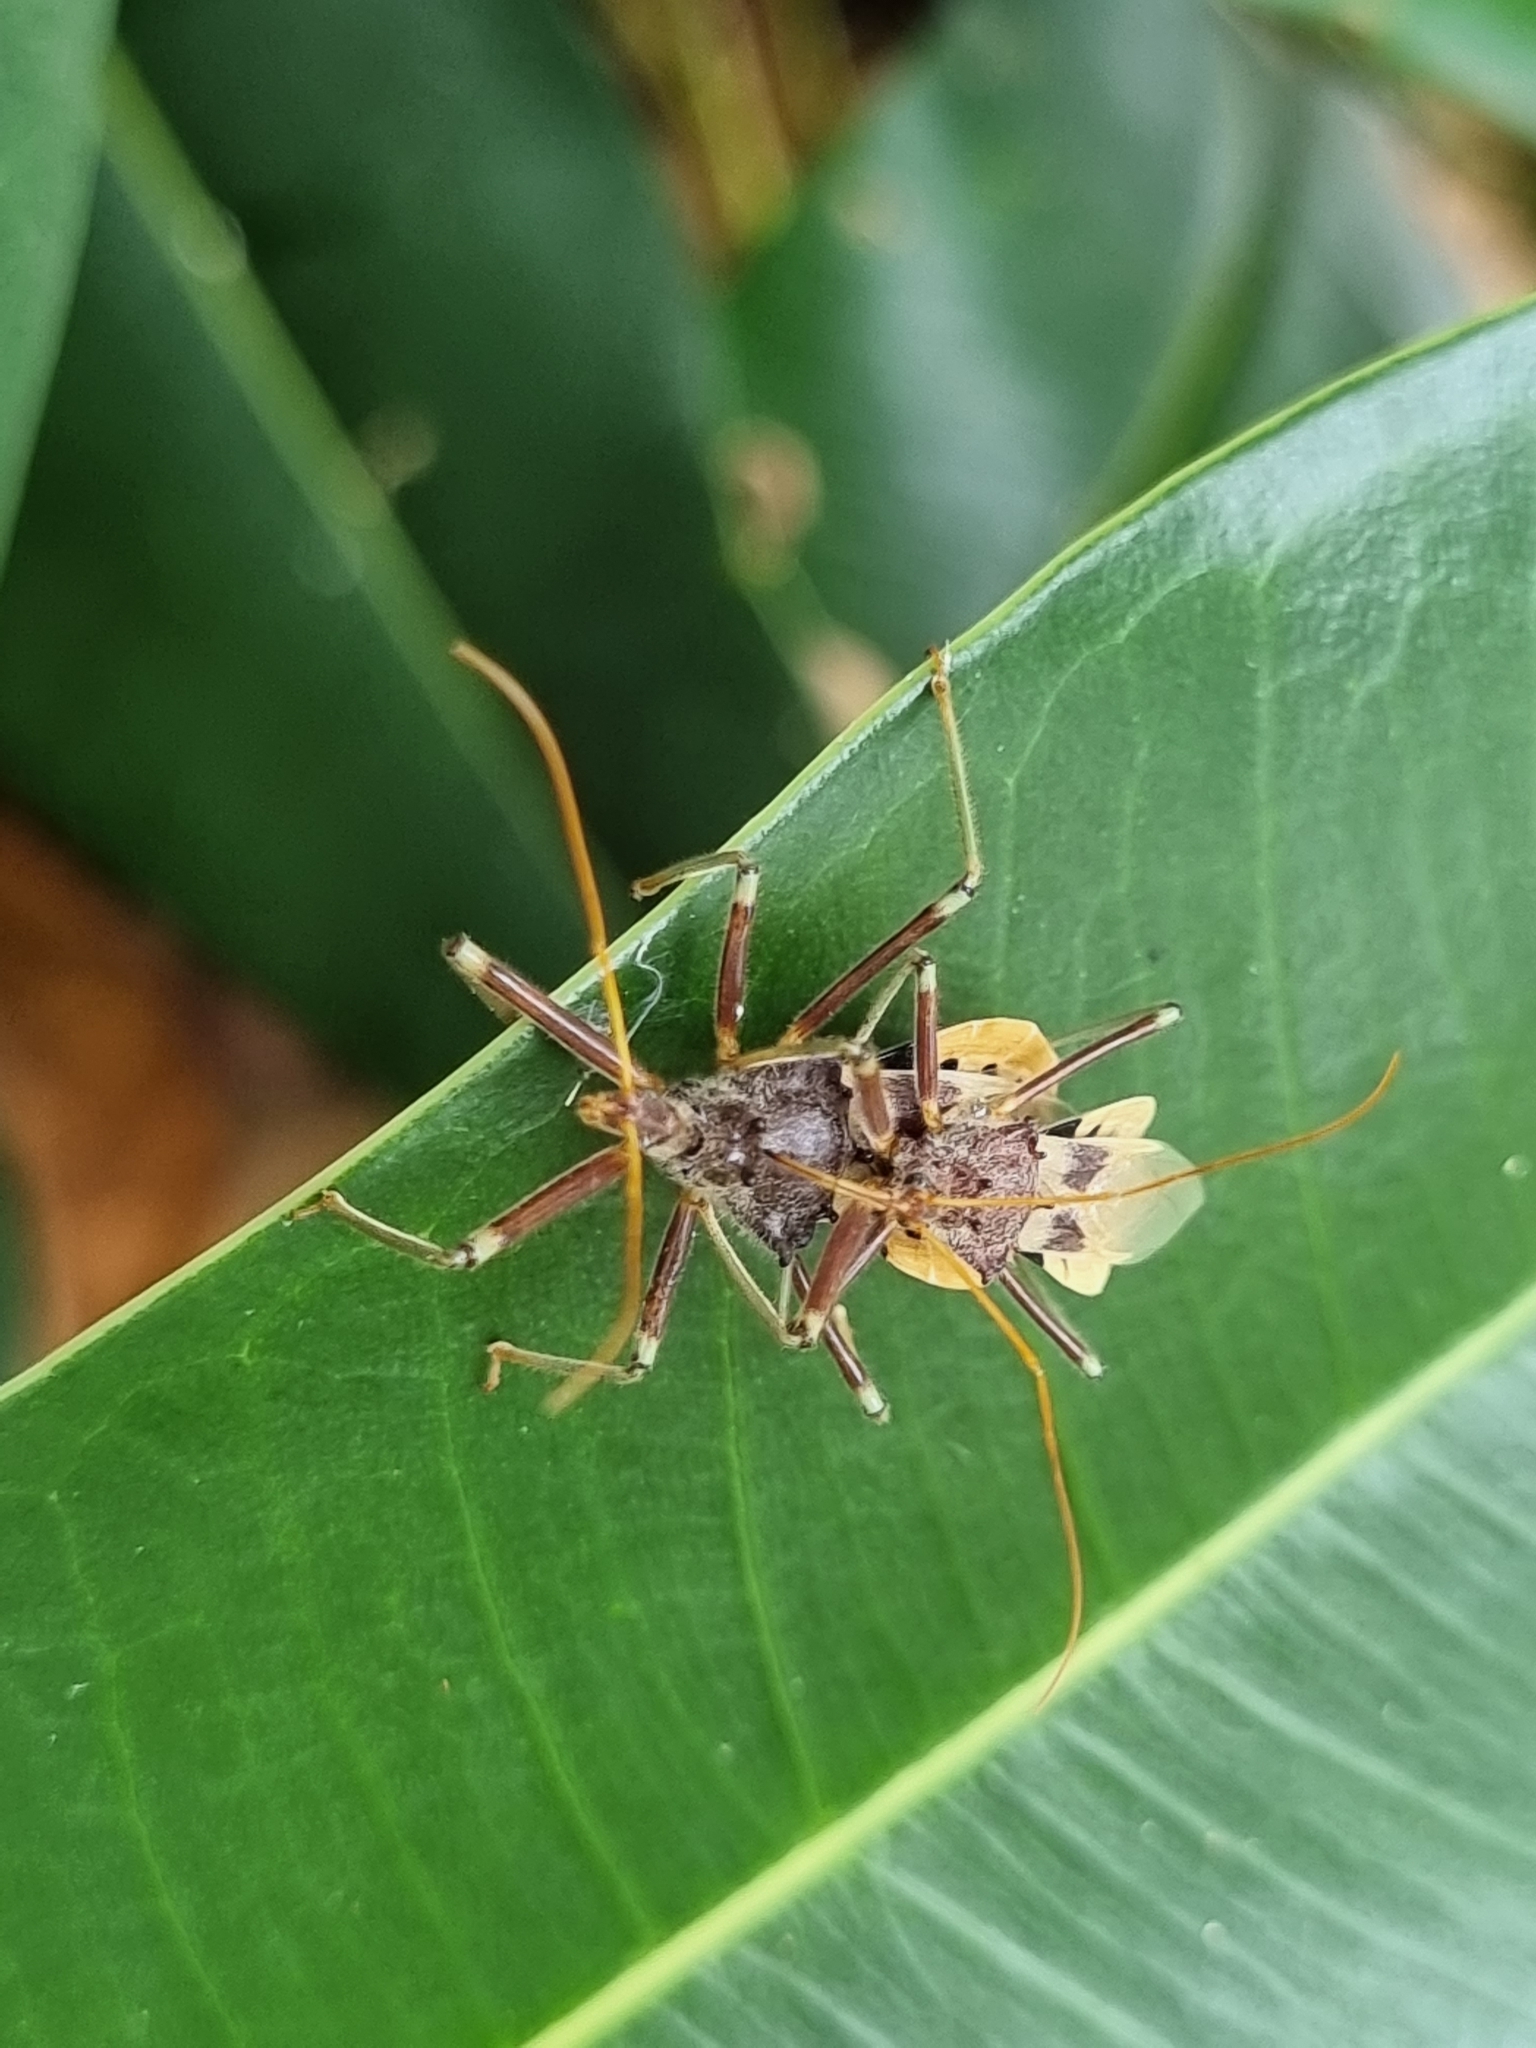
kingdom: Animalia
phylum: Arthropoda
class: Insecta
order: Hemiptera
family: Reduviidae
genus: Pristhesancus
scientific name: Pristhesancus plagipennis
